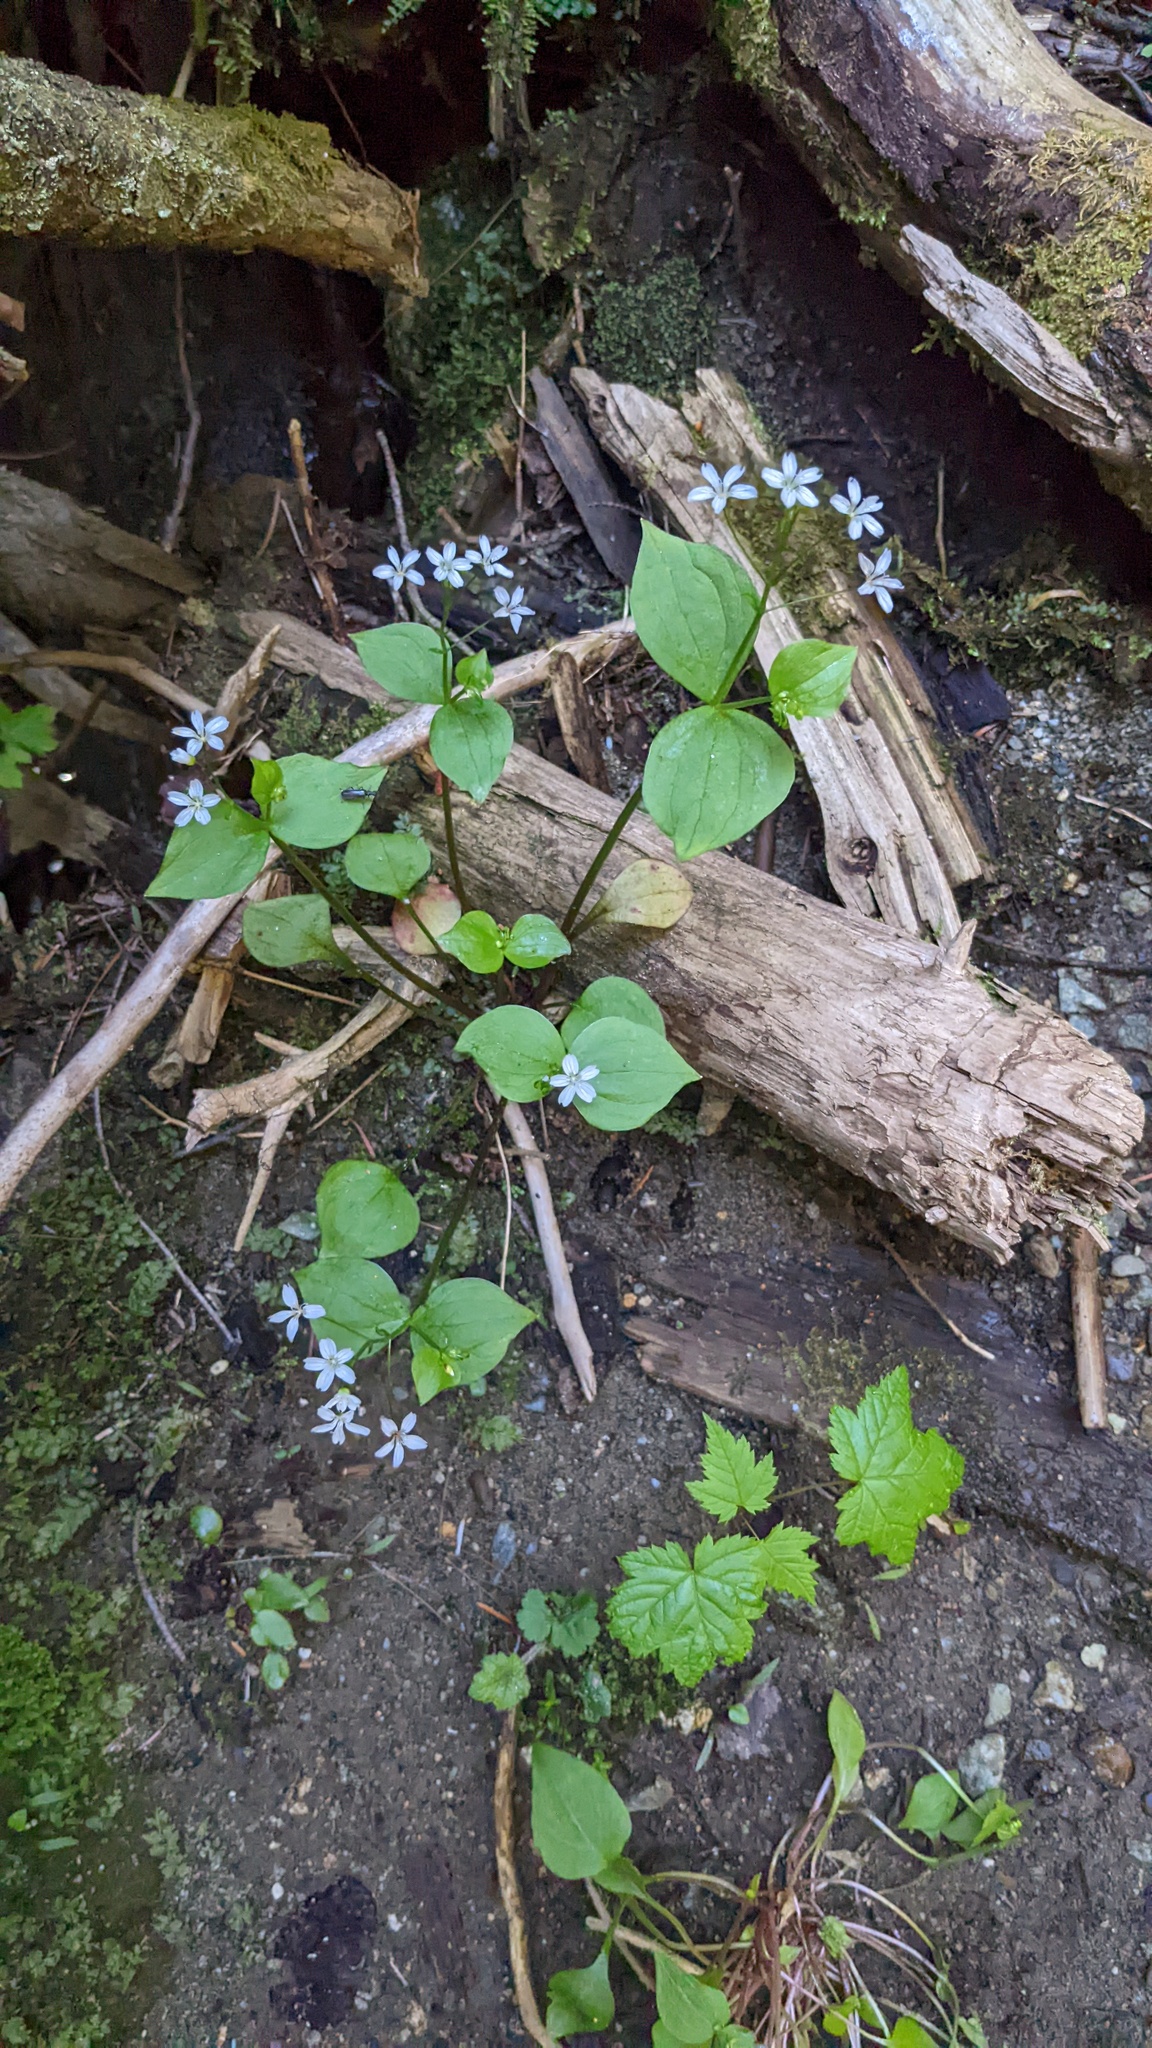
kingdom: Plantae
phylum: Tracheophyta
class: Magnoliopsida
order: Caryophyllales
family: Montiaceae
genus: Claytonia
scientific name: Claytonia sibirica
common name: Pink purslane
